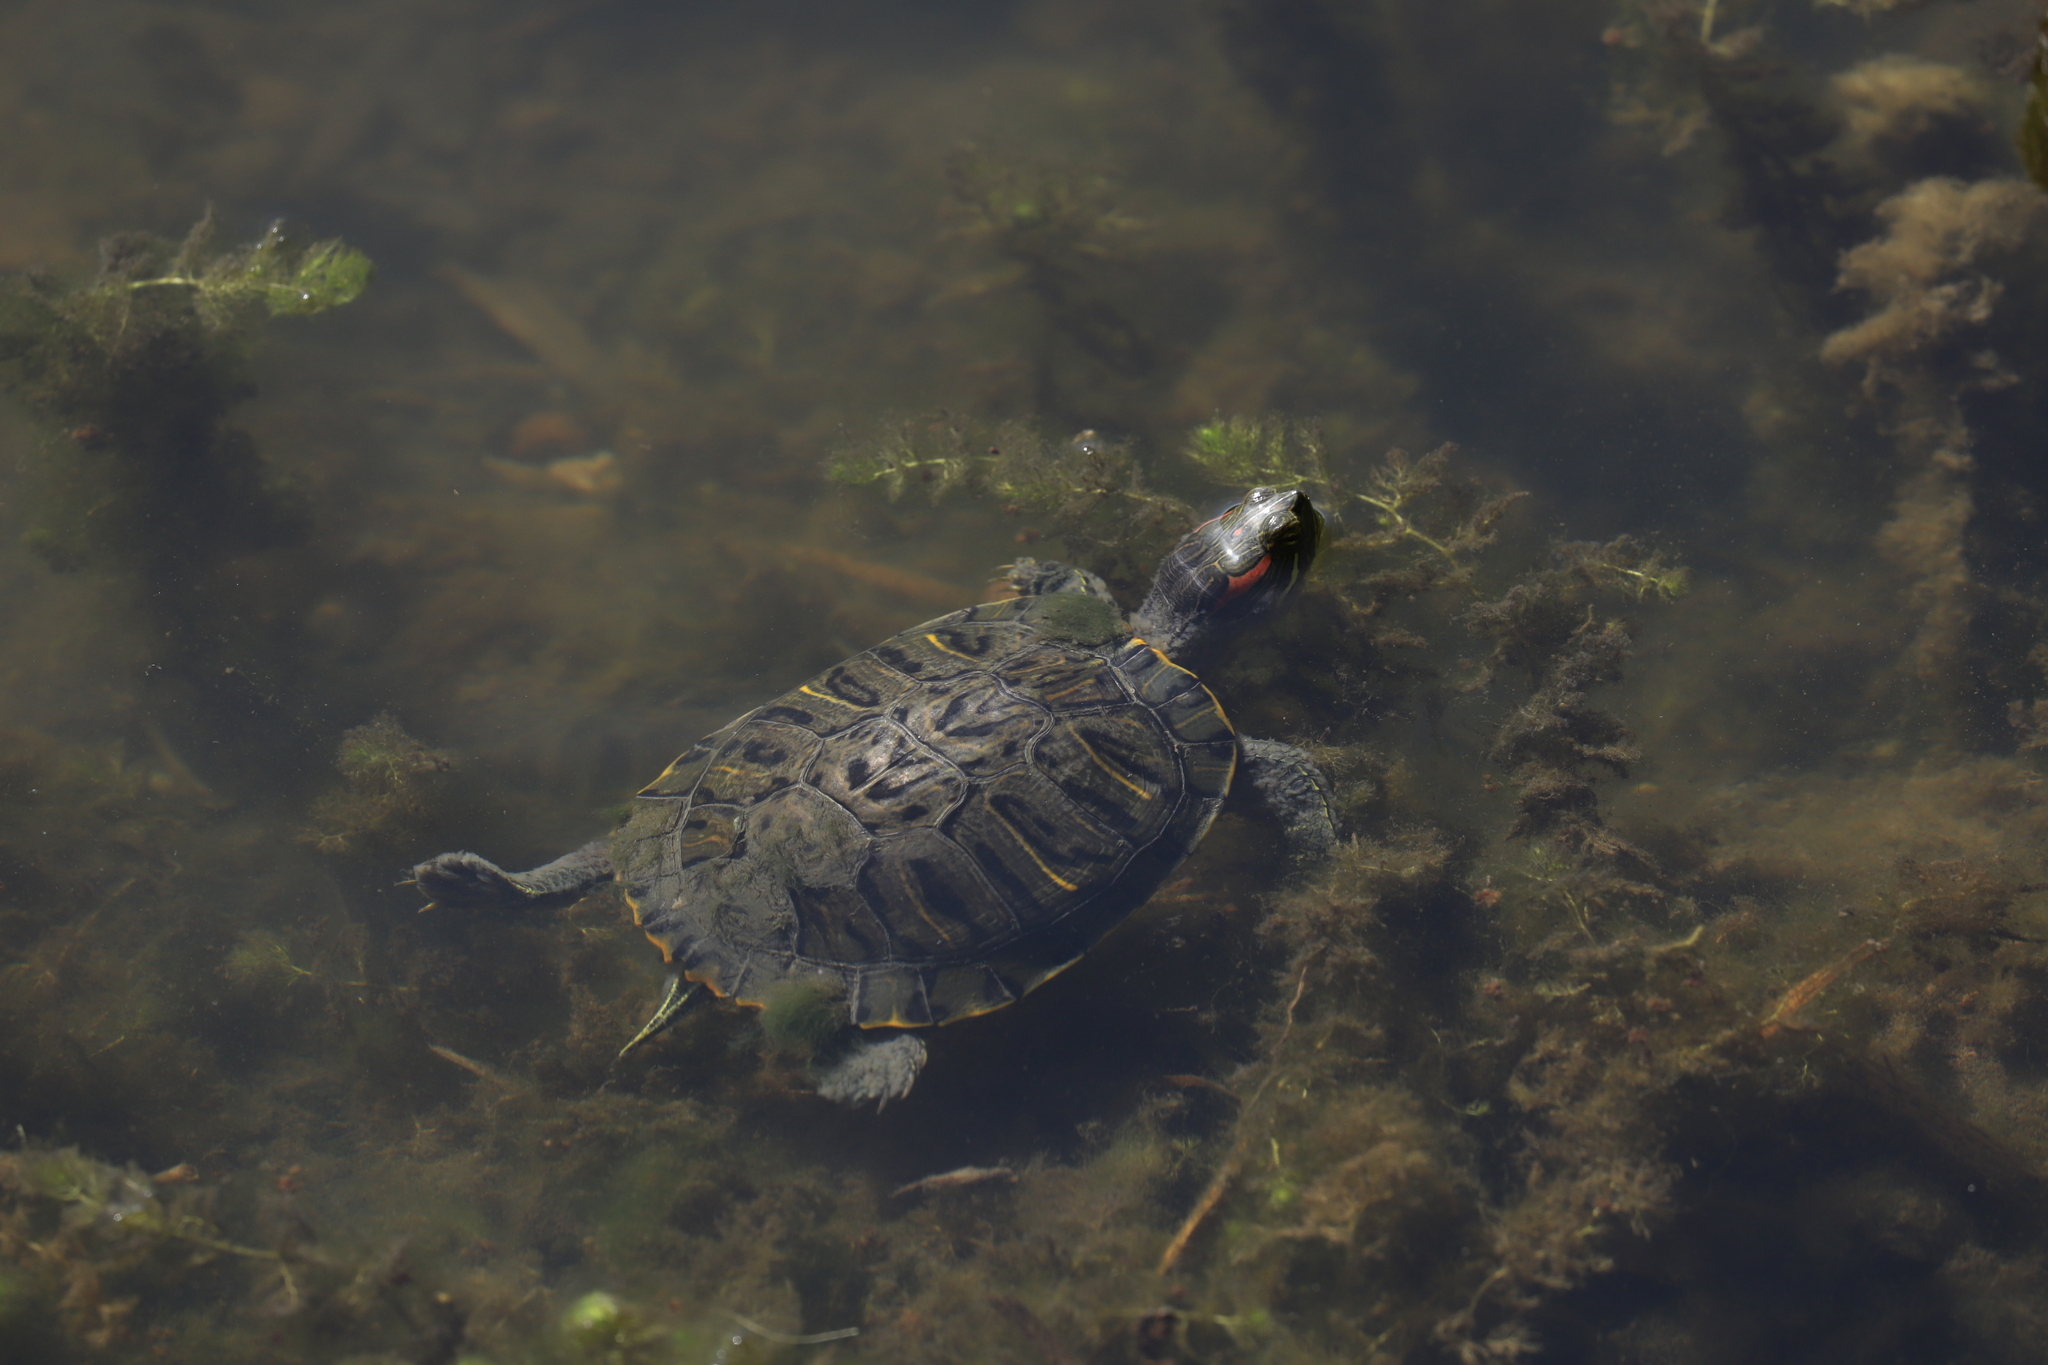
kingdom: Animalia
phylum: Chordata
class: Testudines
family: Emydidae
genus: Trachemys
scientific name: Trachemys scripta
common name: Slider
